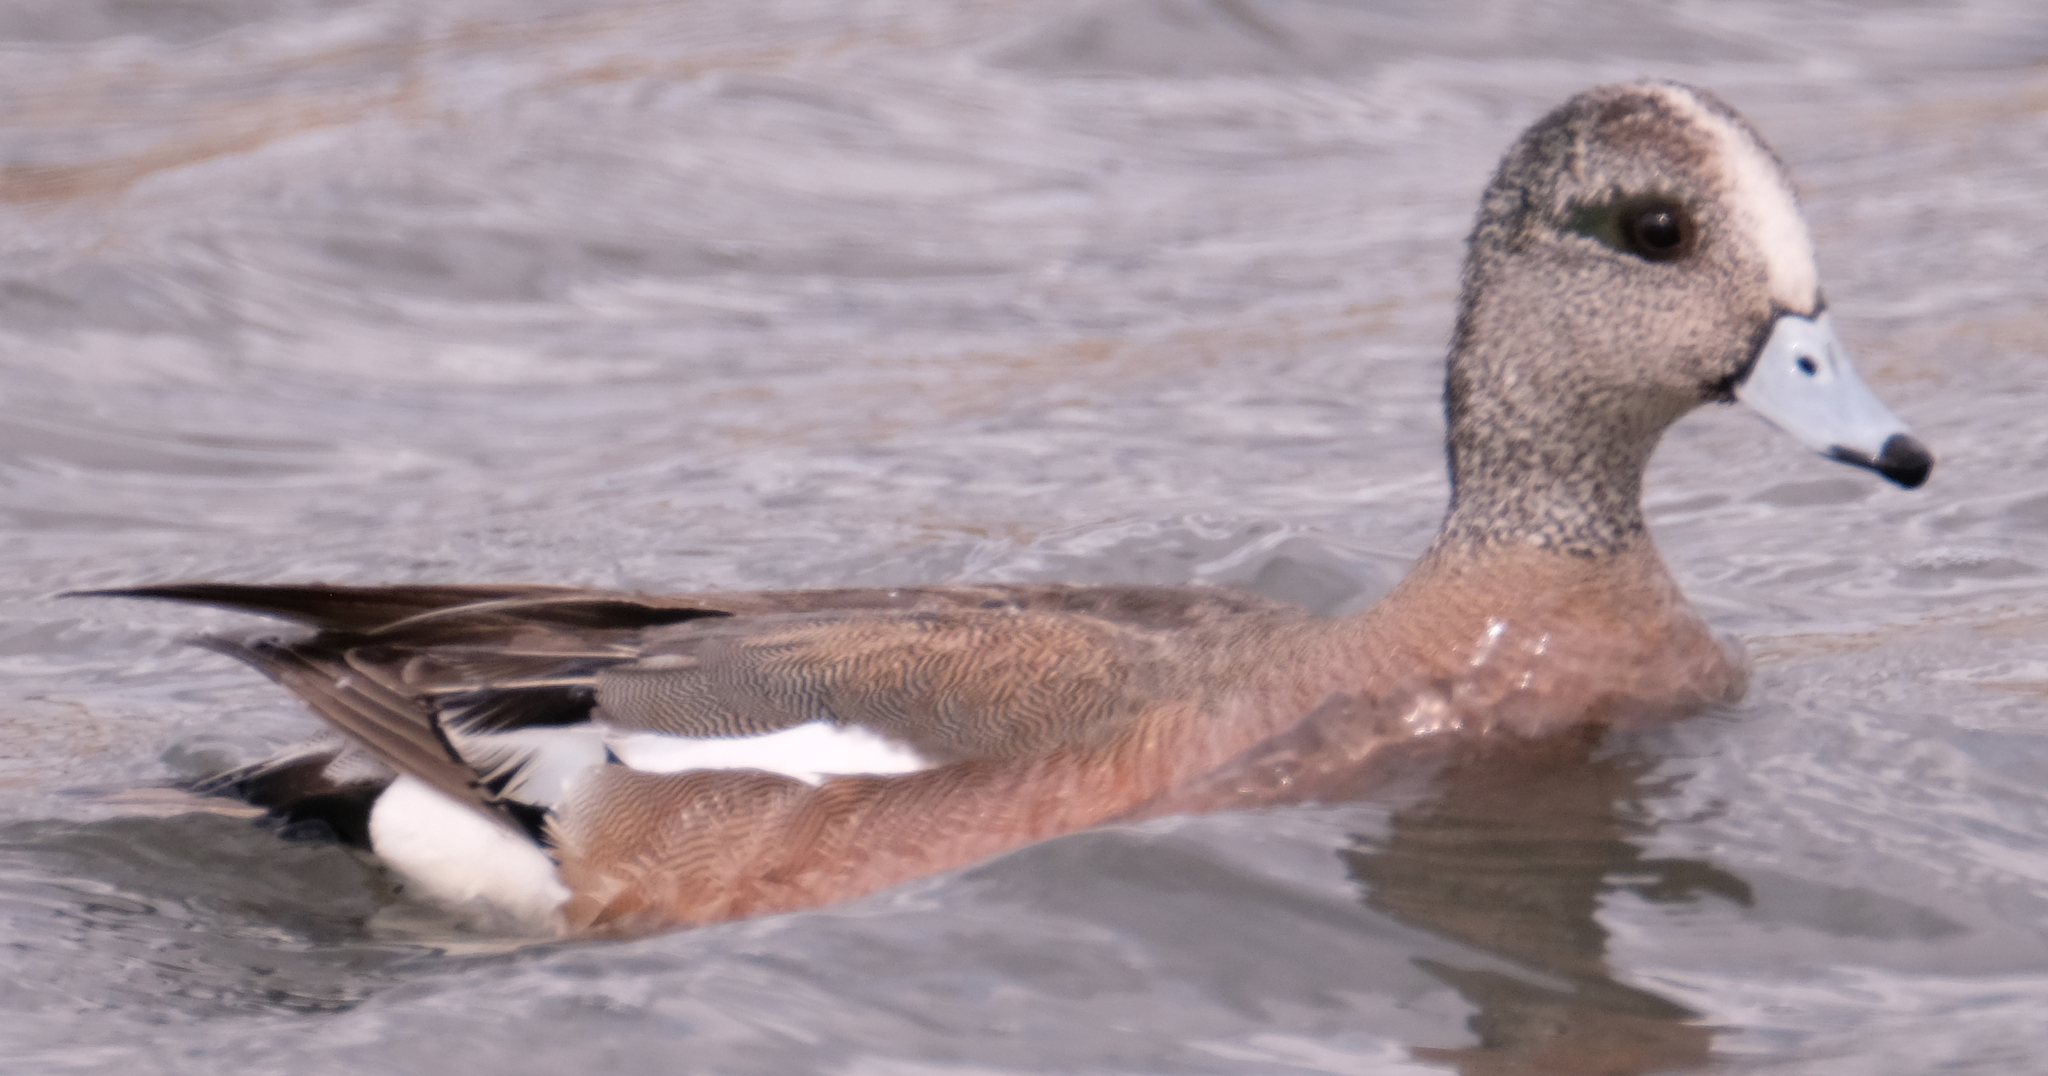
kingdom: Animalia
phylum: Chordata
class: Aves
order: Anseriformes
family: Anatidae
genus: Mareca
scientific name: Mareca americana
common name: American wigeon
